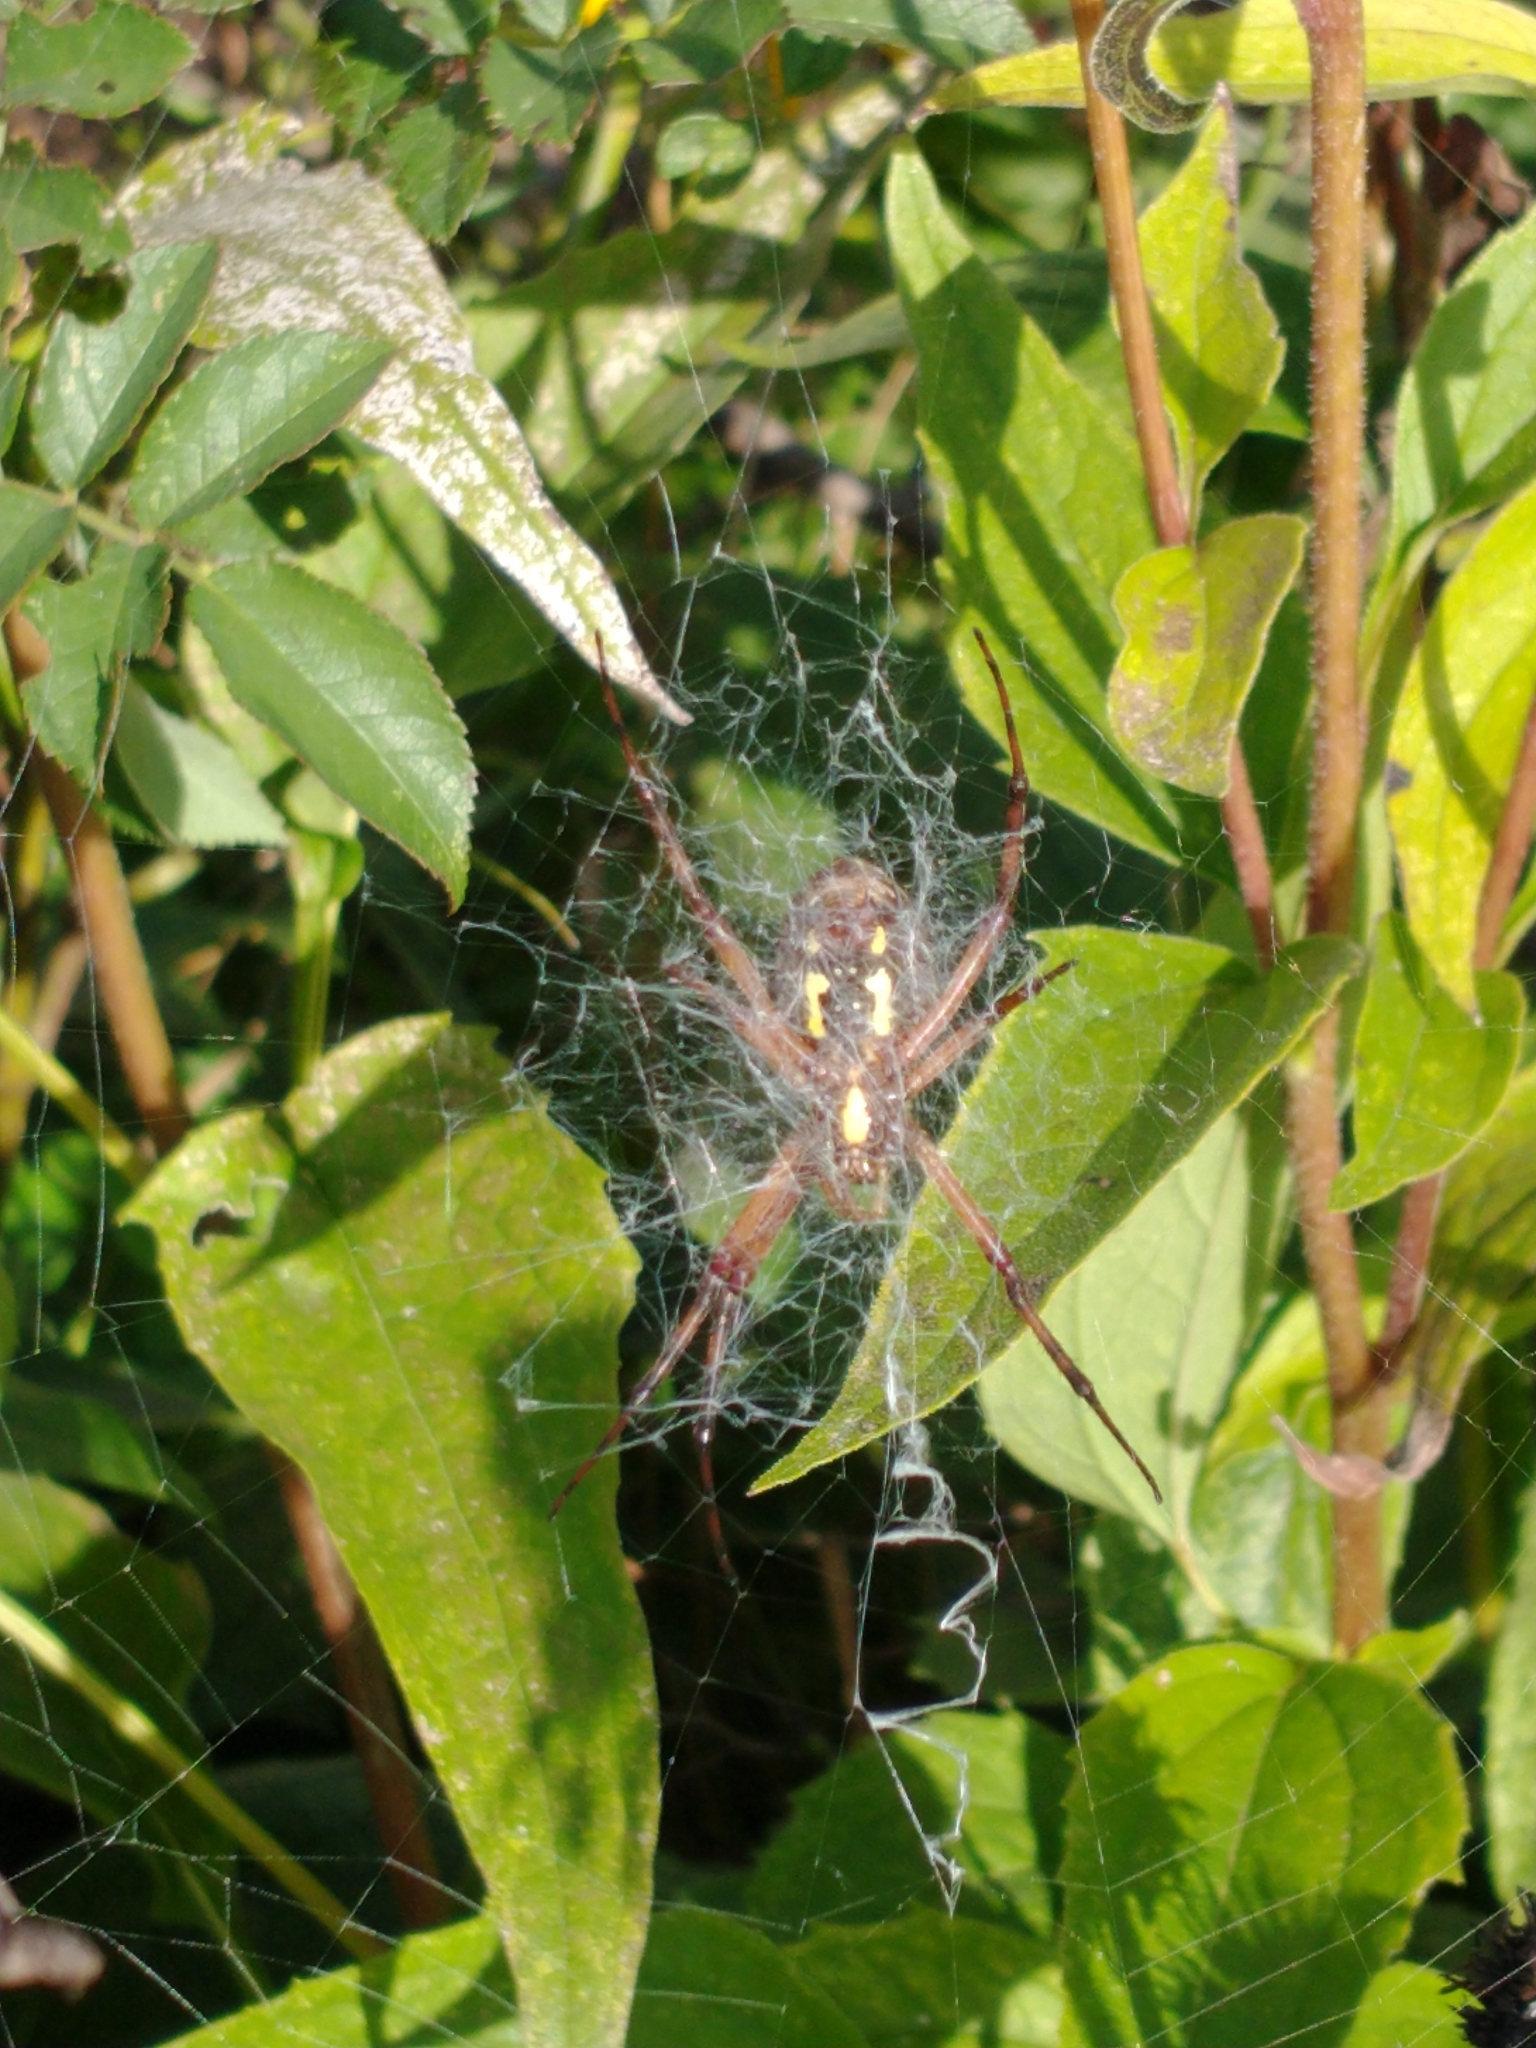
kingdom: Animalia
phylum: Arthropoda
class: Arachnida
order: Araneae
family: Araneidae
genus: Argiope
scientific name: Argiope aurantia
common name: Orb weavers
